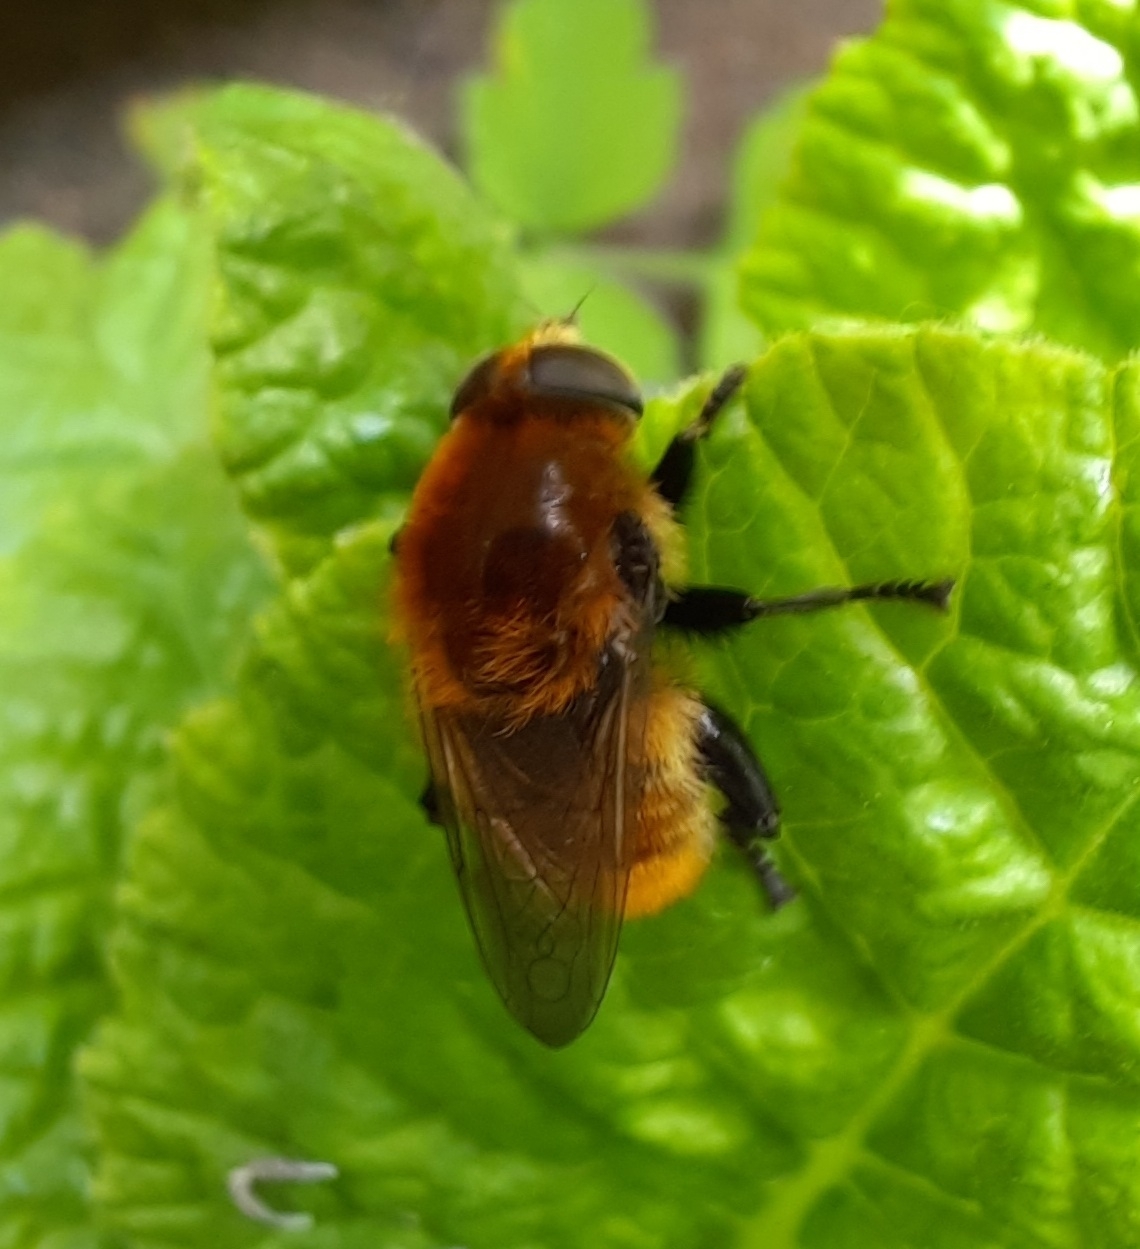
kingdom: Animalia
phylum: Arthropoda
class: Insecta
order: Diptera
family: Syrphidae
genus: Merodon
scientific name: Merodon equestris
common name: Greater bulb-fly
